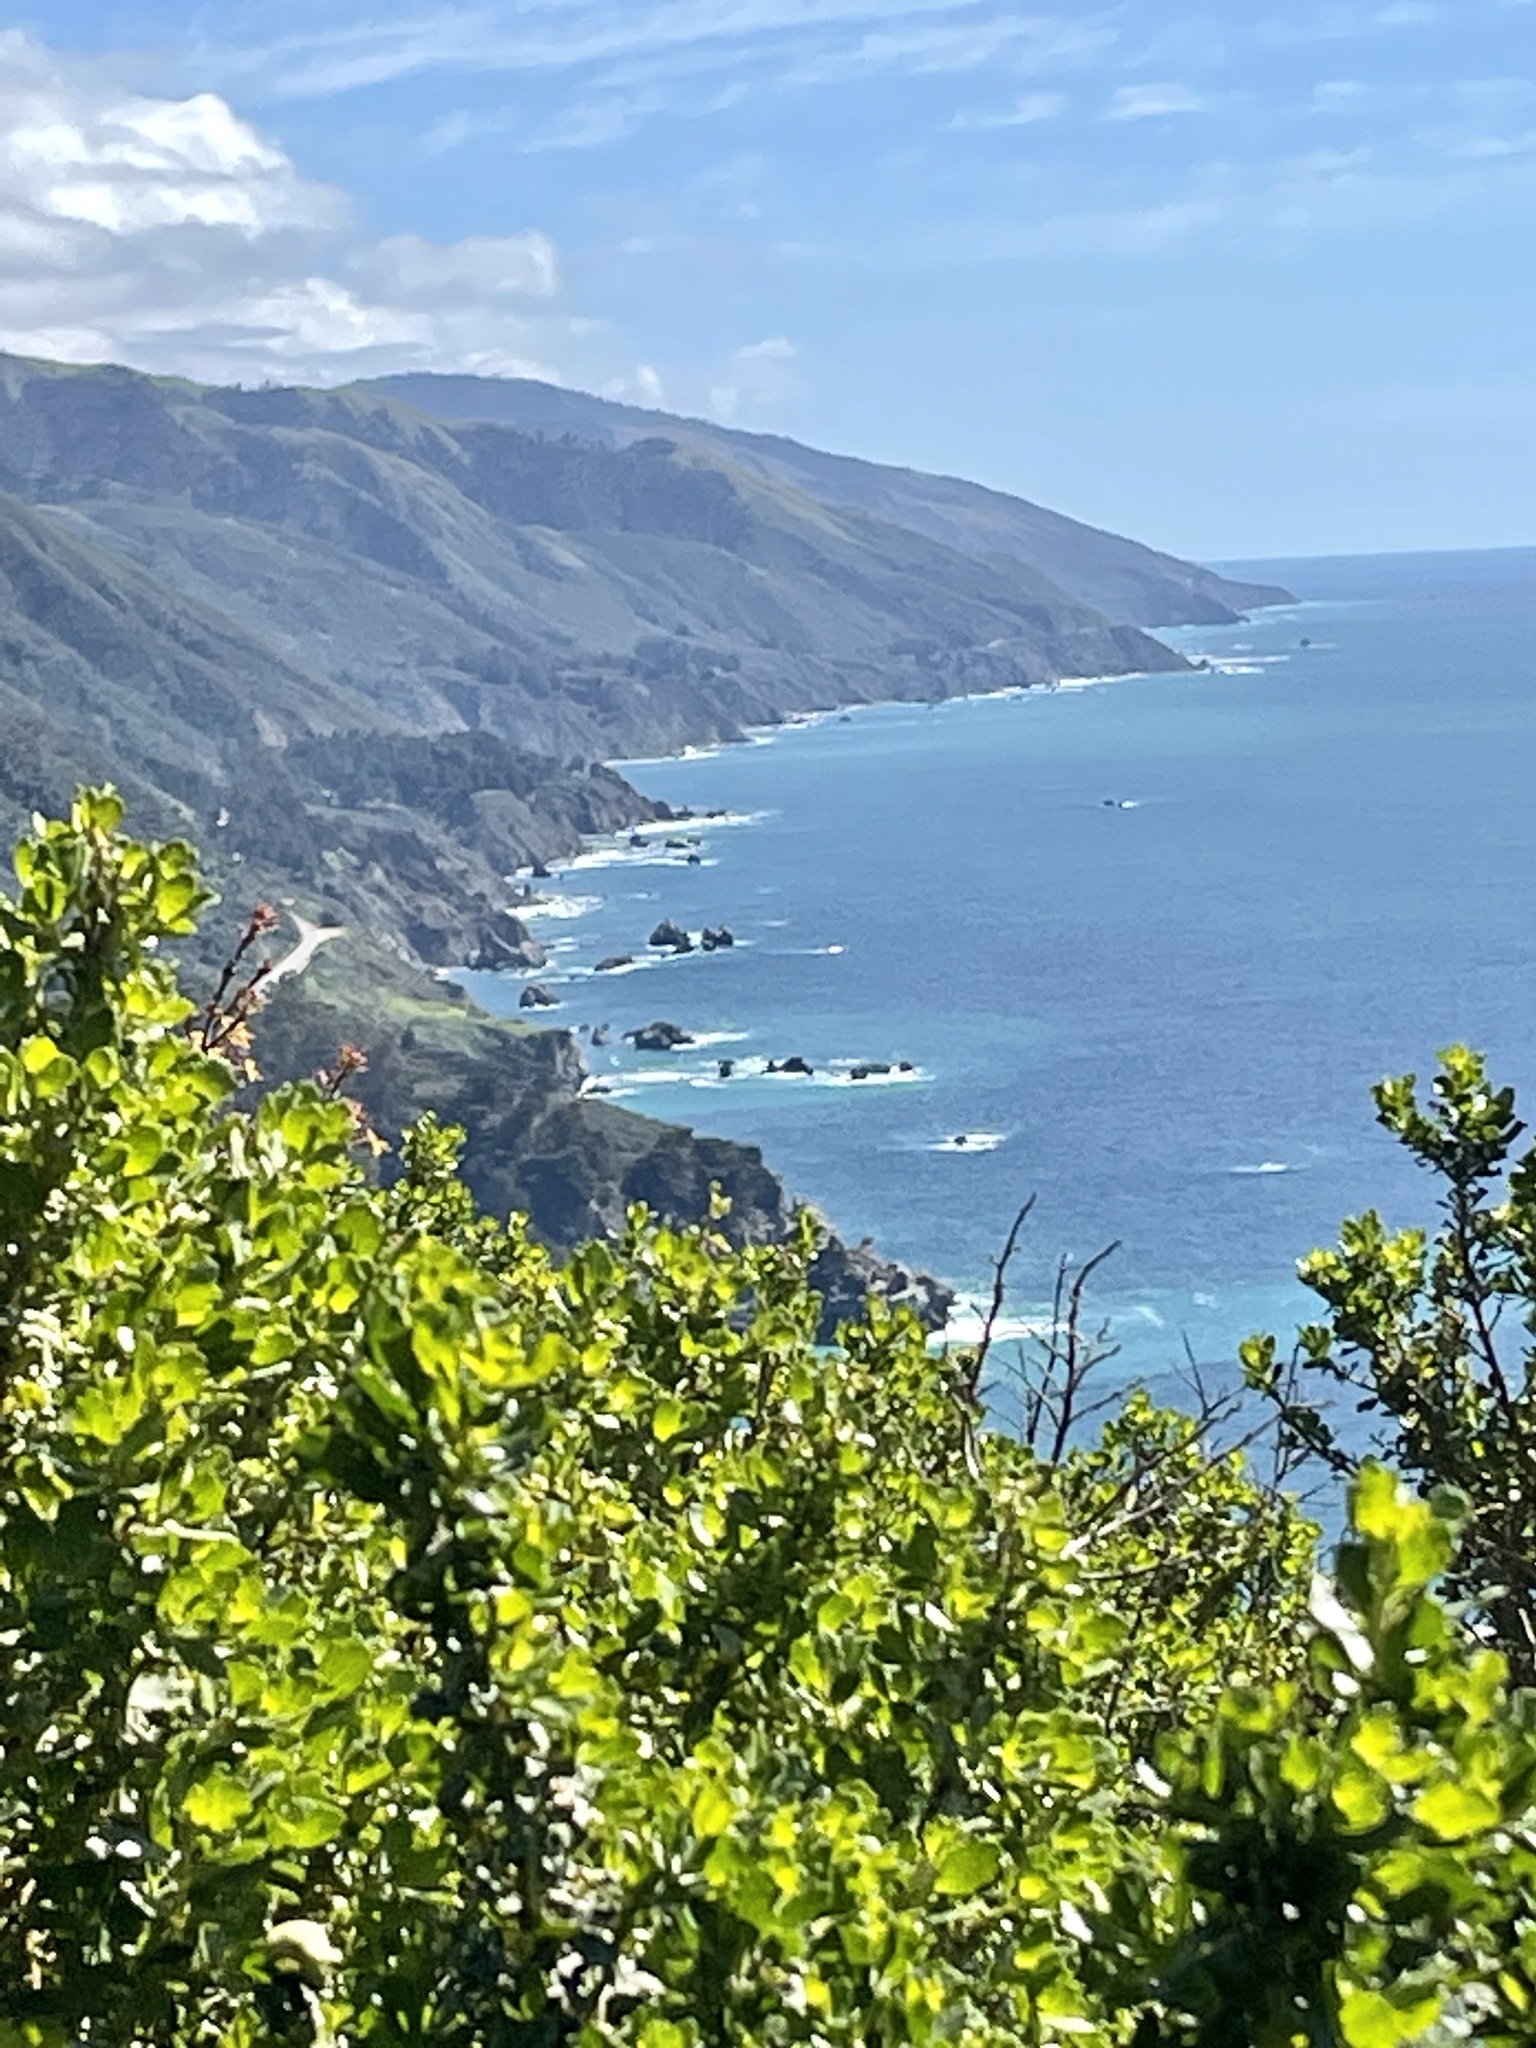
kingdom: Plantae
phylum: Tracheophyta
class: Magnoliopsida
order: Asterales
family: Asteraceae
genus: Baccharis
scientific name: Baccharis pilularis
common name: Coyotebrush
